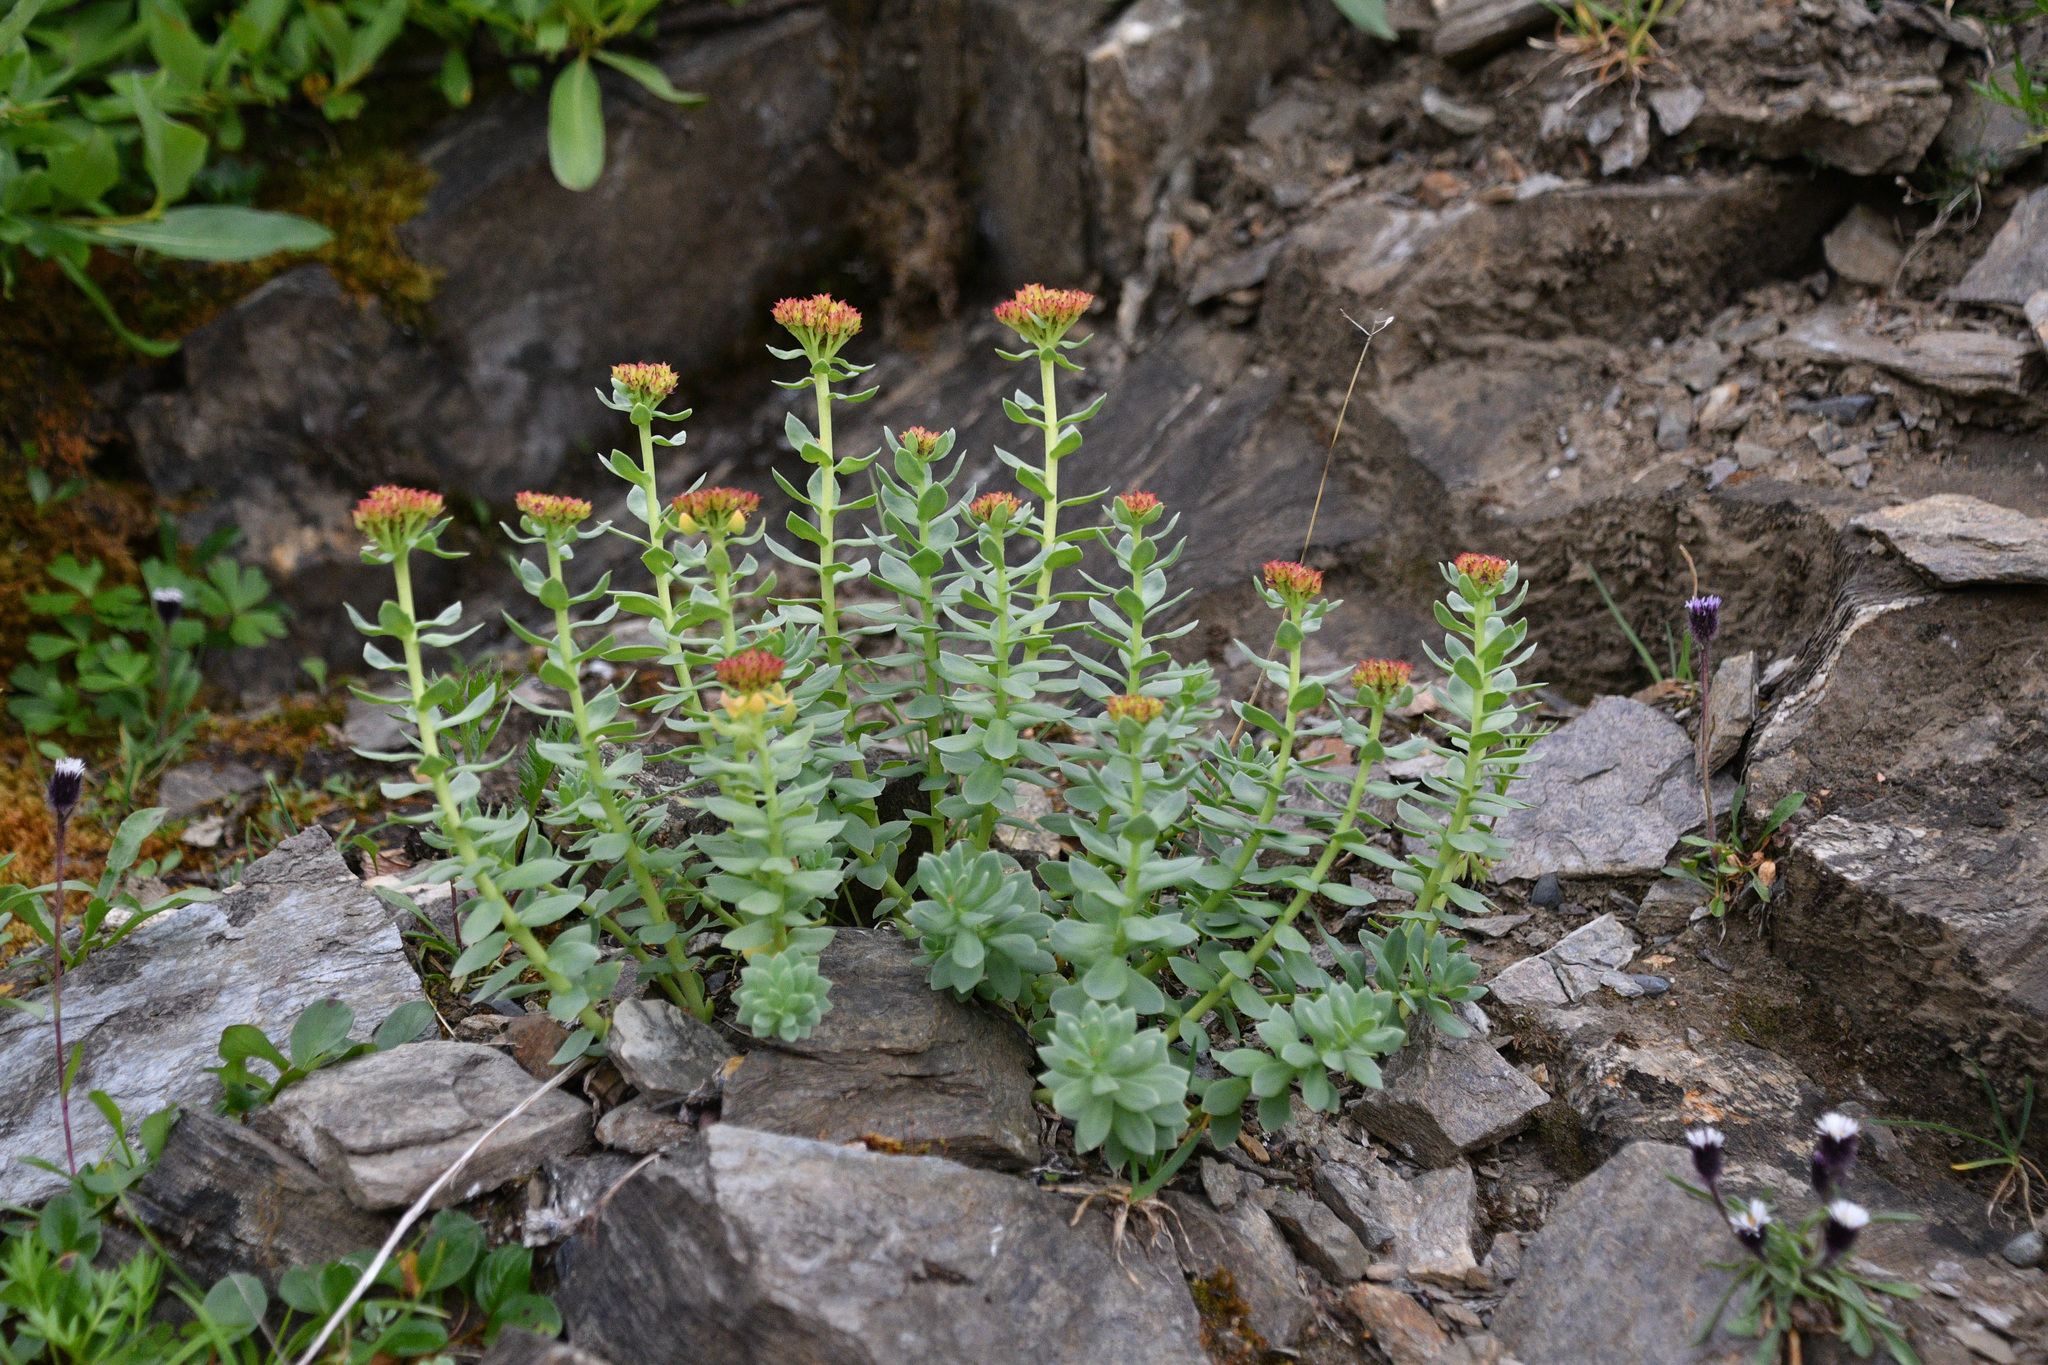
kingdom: Plantae
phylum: Tracheophyta
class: Magnoliopsida
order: Saxifragales
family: Crassulaceae
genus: Rhodiola
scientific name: Rhodiola integrifolia
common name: Western roseroot
